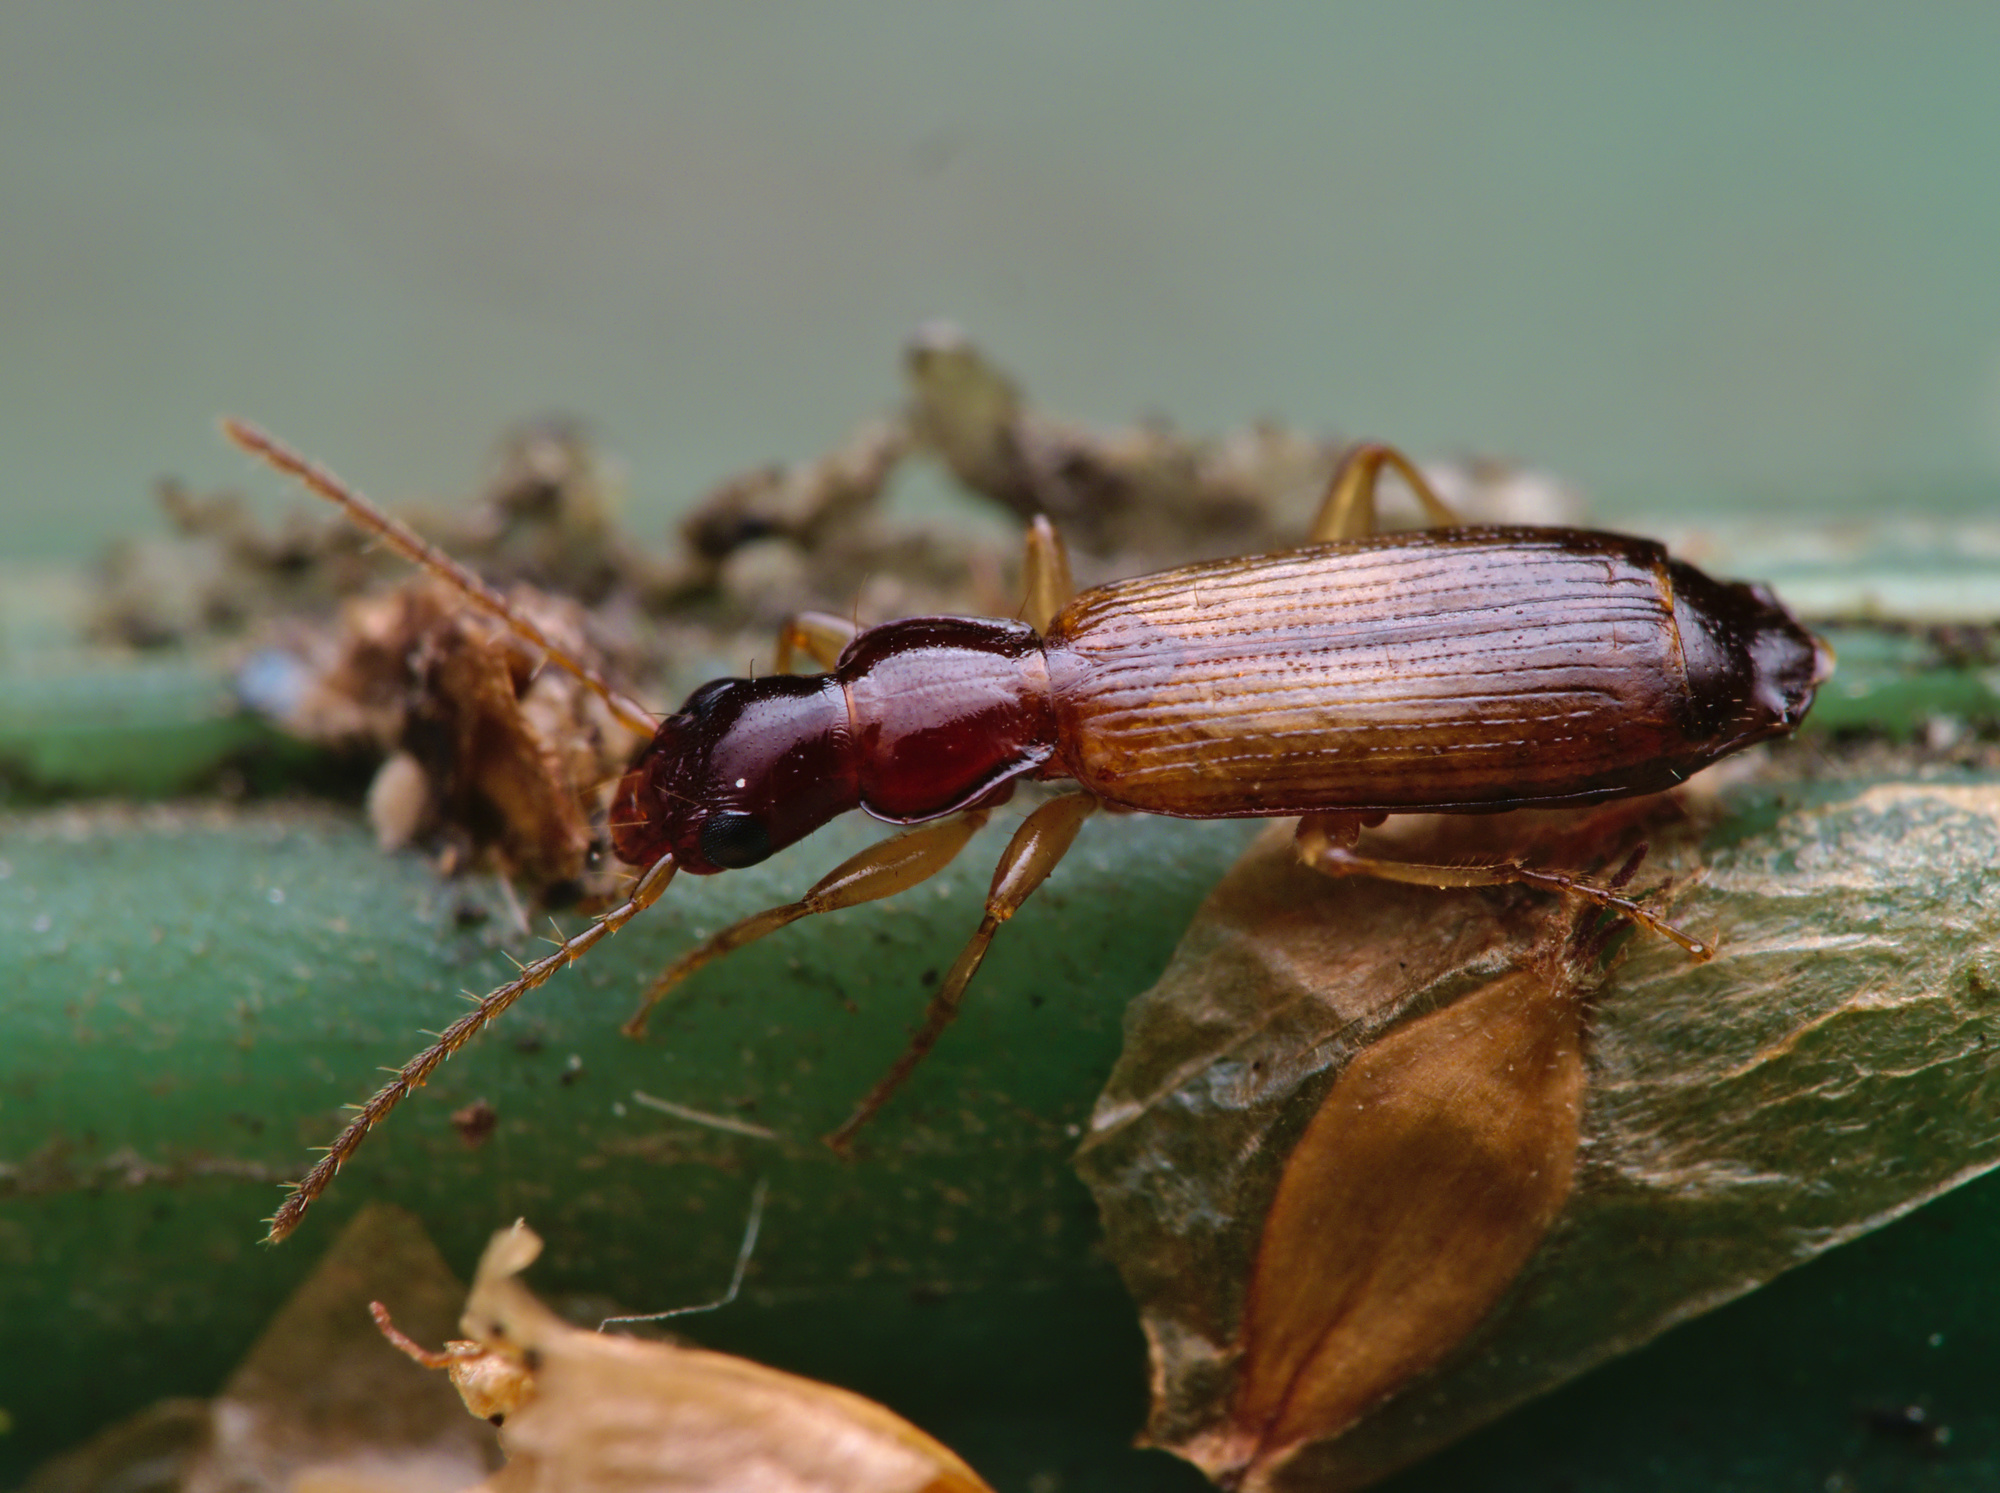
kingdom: Animalia
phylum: Arthropoda
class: Insecta
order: Coleoptera
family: Carabidae
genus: Paradromius
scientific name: Paradromius linearis
